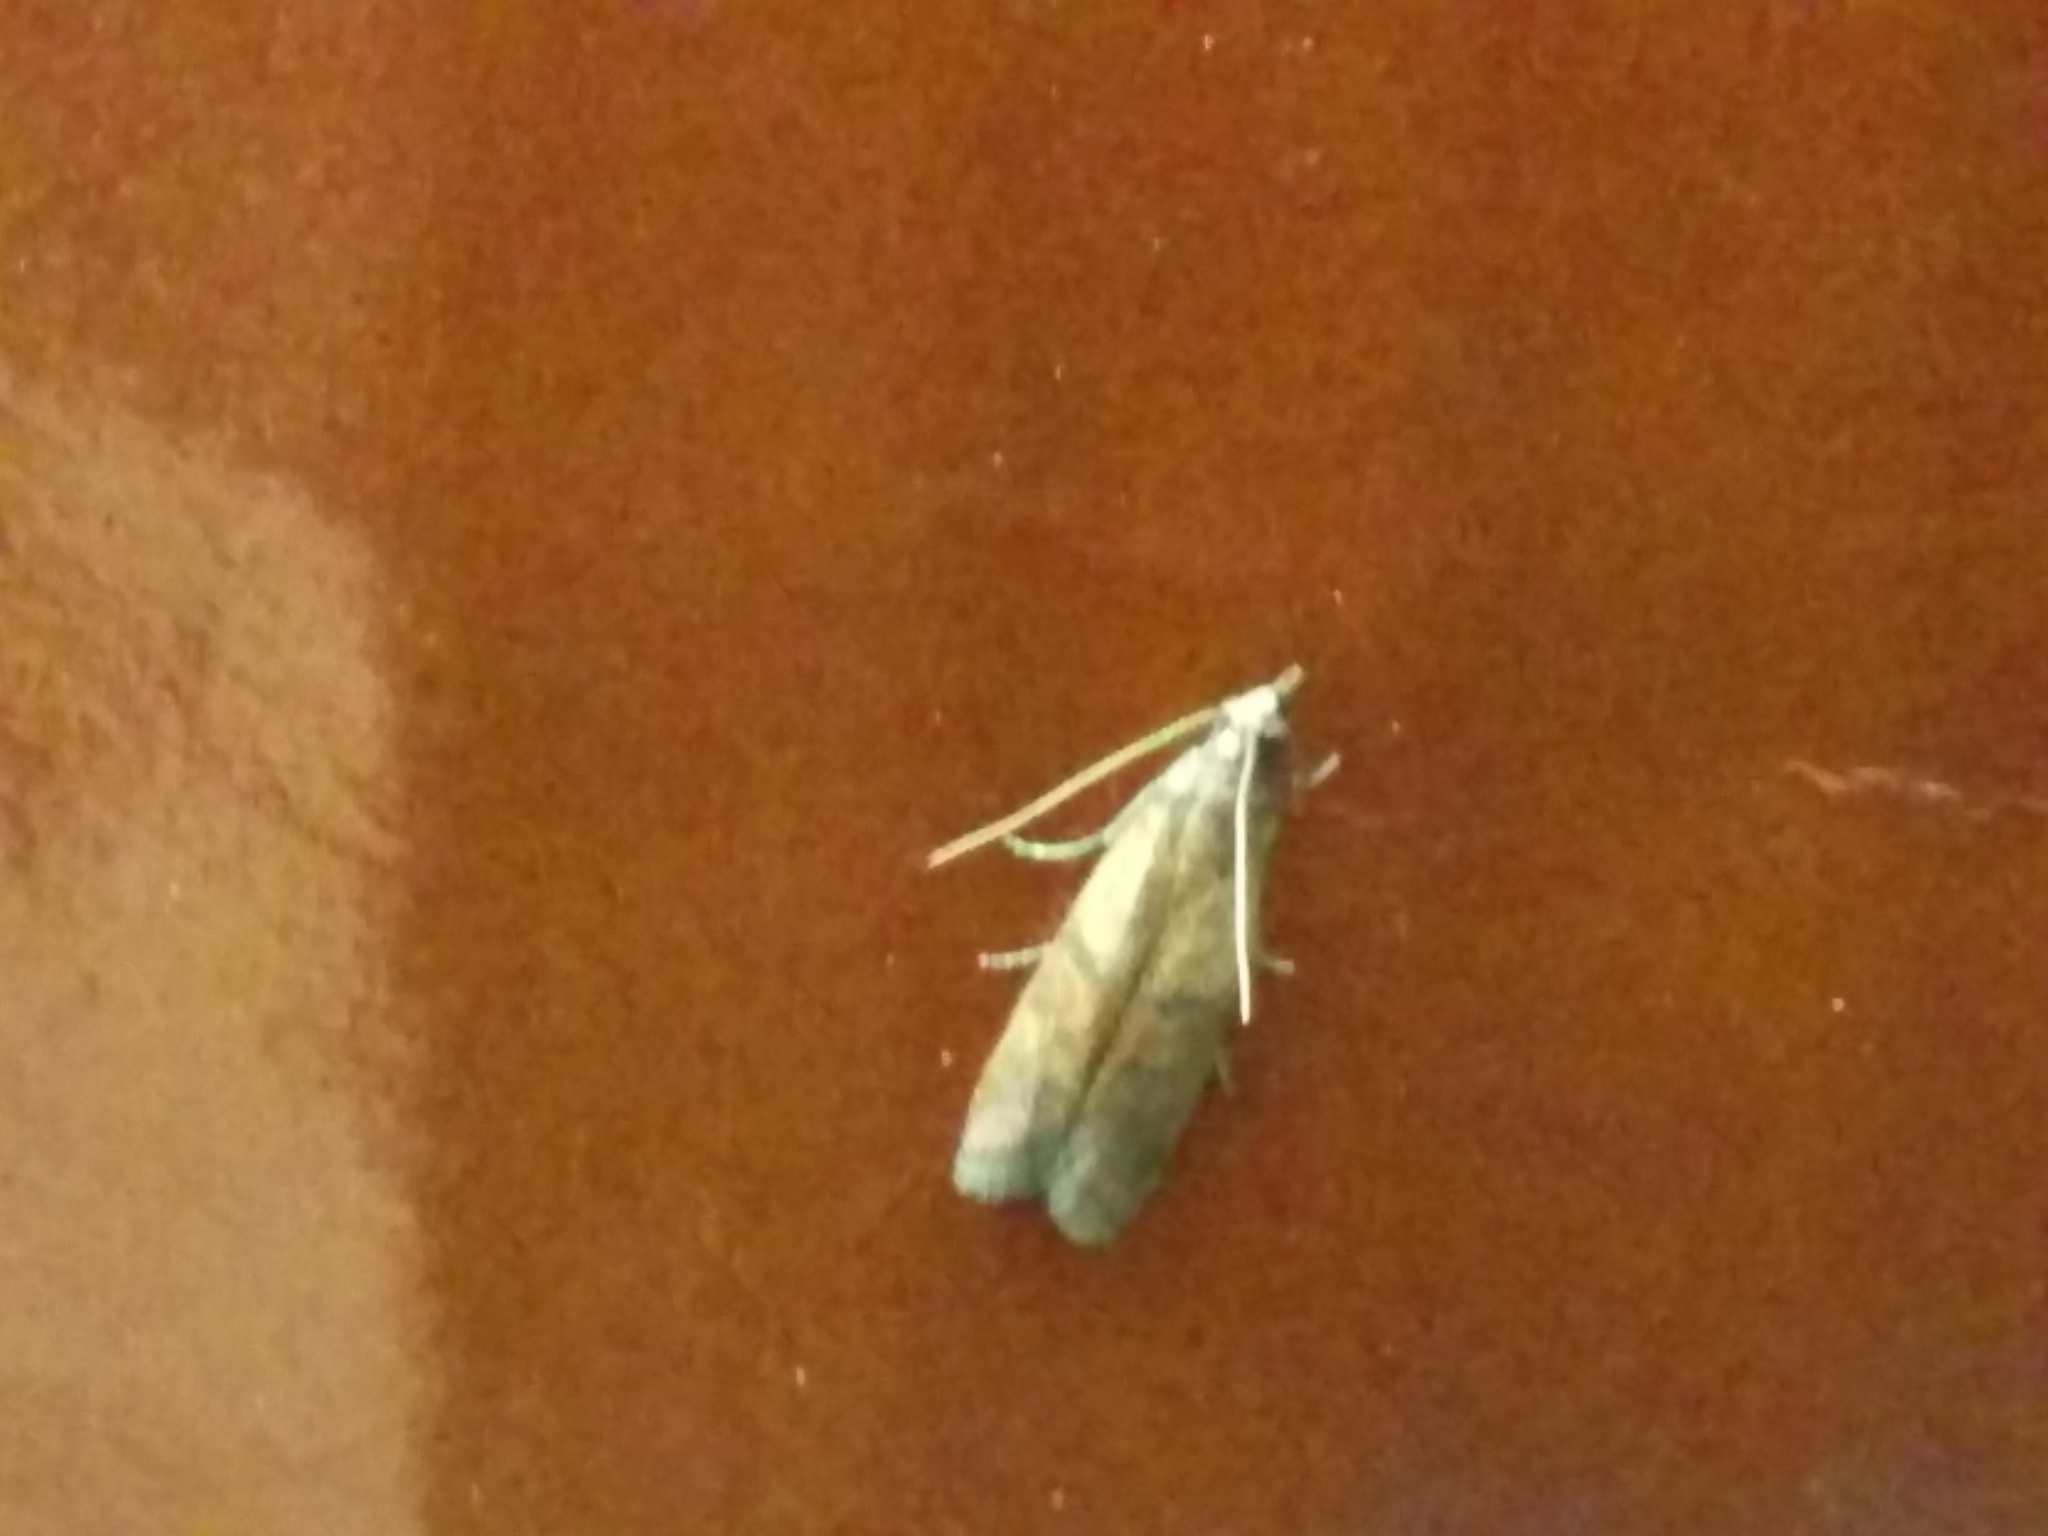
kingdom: Animalia
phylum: Arthropoda
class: Insecta
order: Lepidoptera
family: Pyralidae
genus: Plodia
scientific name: Plodia interpunctella
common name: Indian meal moth
